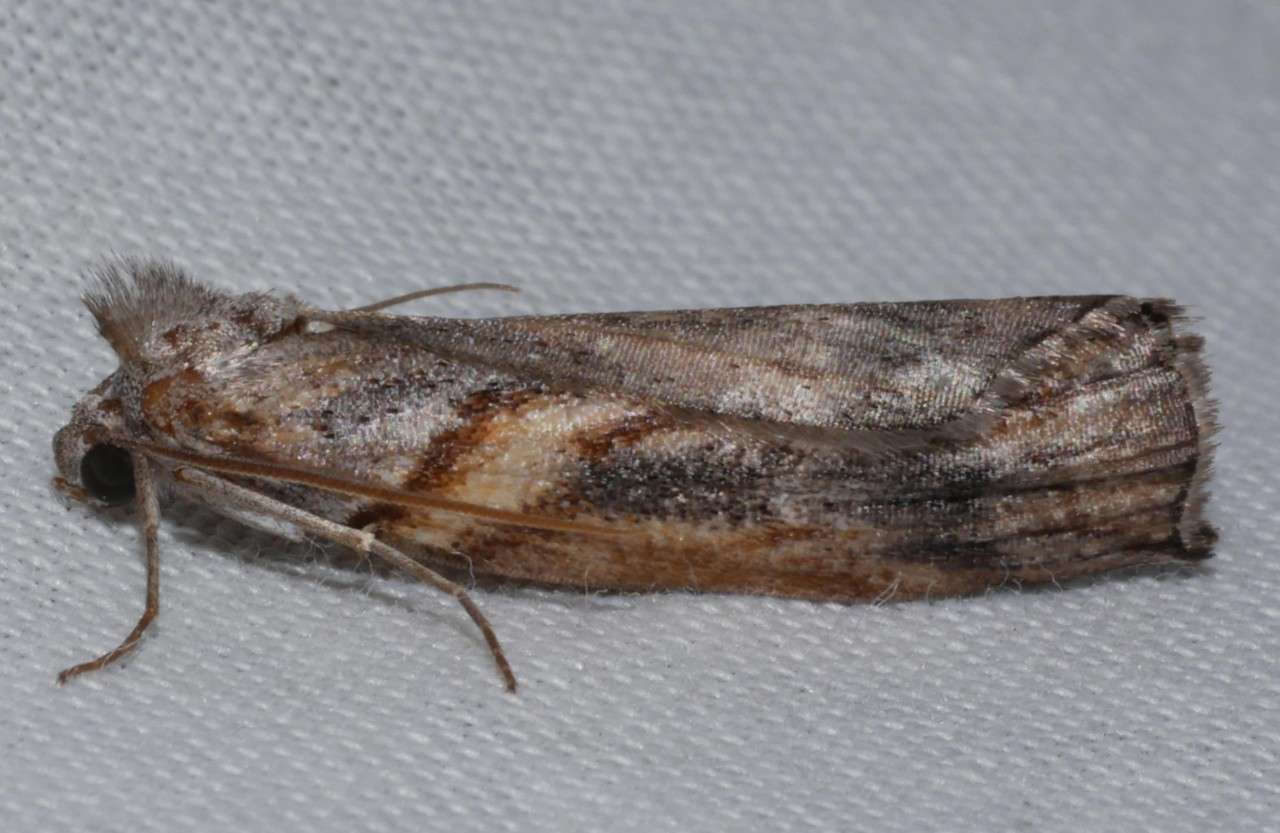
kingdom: Animalia
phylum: Arthropoda
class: Insecta
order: Lepidoptera
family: Geometridae
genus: Lophothalaina
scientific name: Lophothalaina habrocosma
